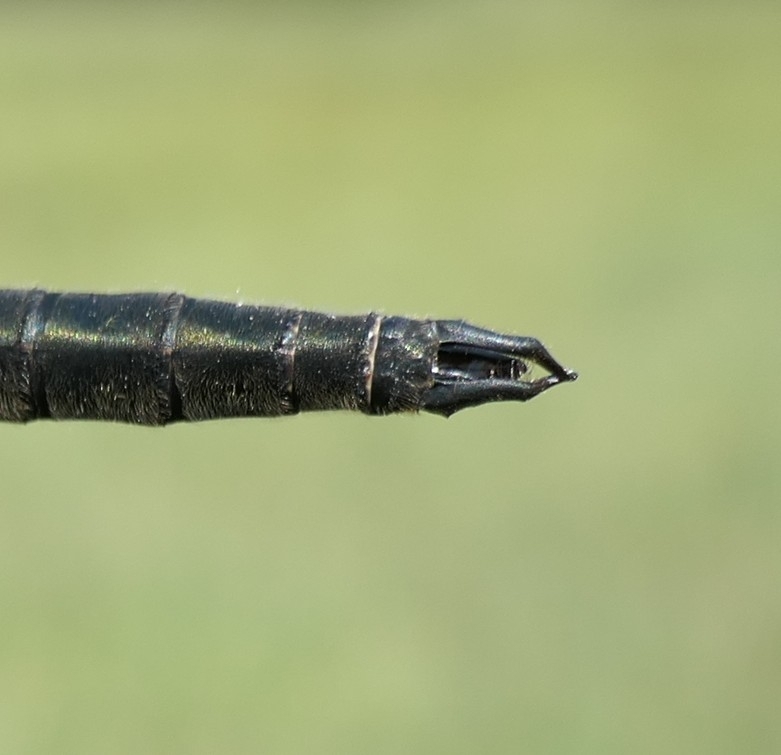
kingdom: Animalia
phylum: Arthropoda
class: Insecta
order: Odonata
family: Corduliidae
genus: Somatochlora
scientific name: Somatochlora alpestris
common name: Alpine emerald
